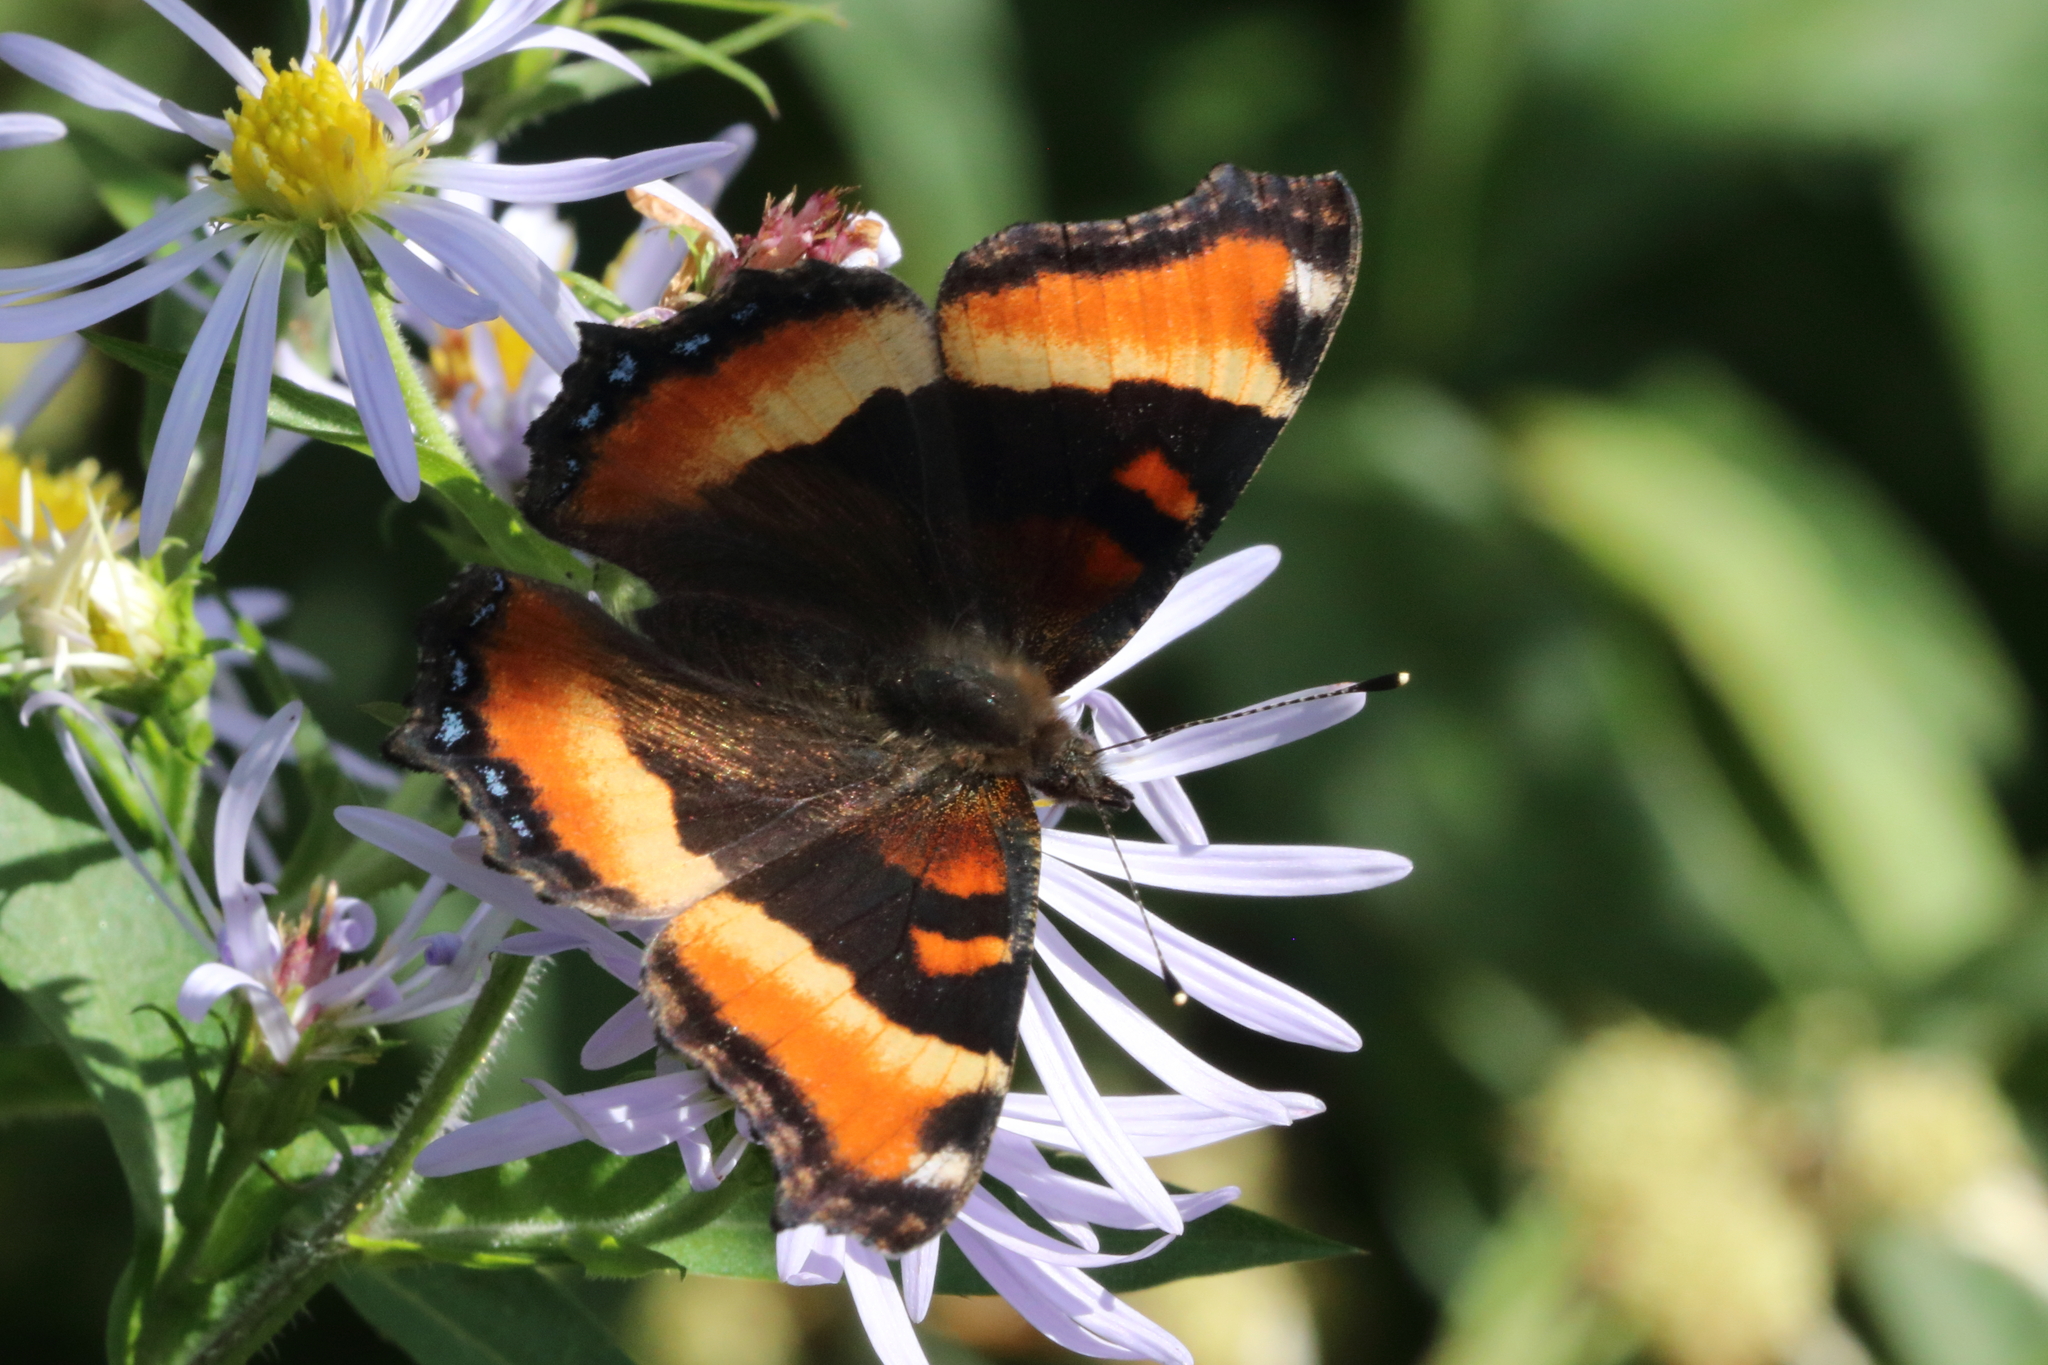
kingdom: Animalia
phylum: Arthropoda
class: Insecta
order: Lepidoptera
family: Nymphalidae
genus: Aglais
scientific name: Aglais milberti
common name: Milbert's tortoiseshell
